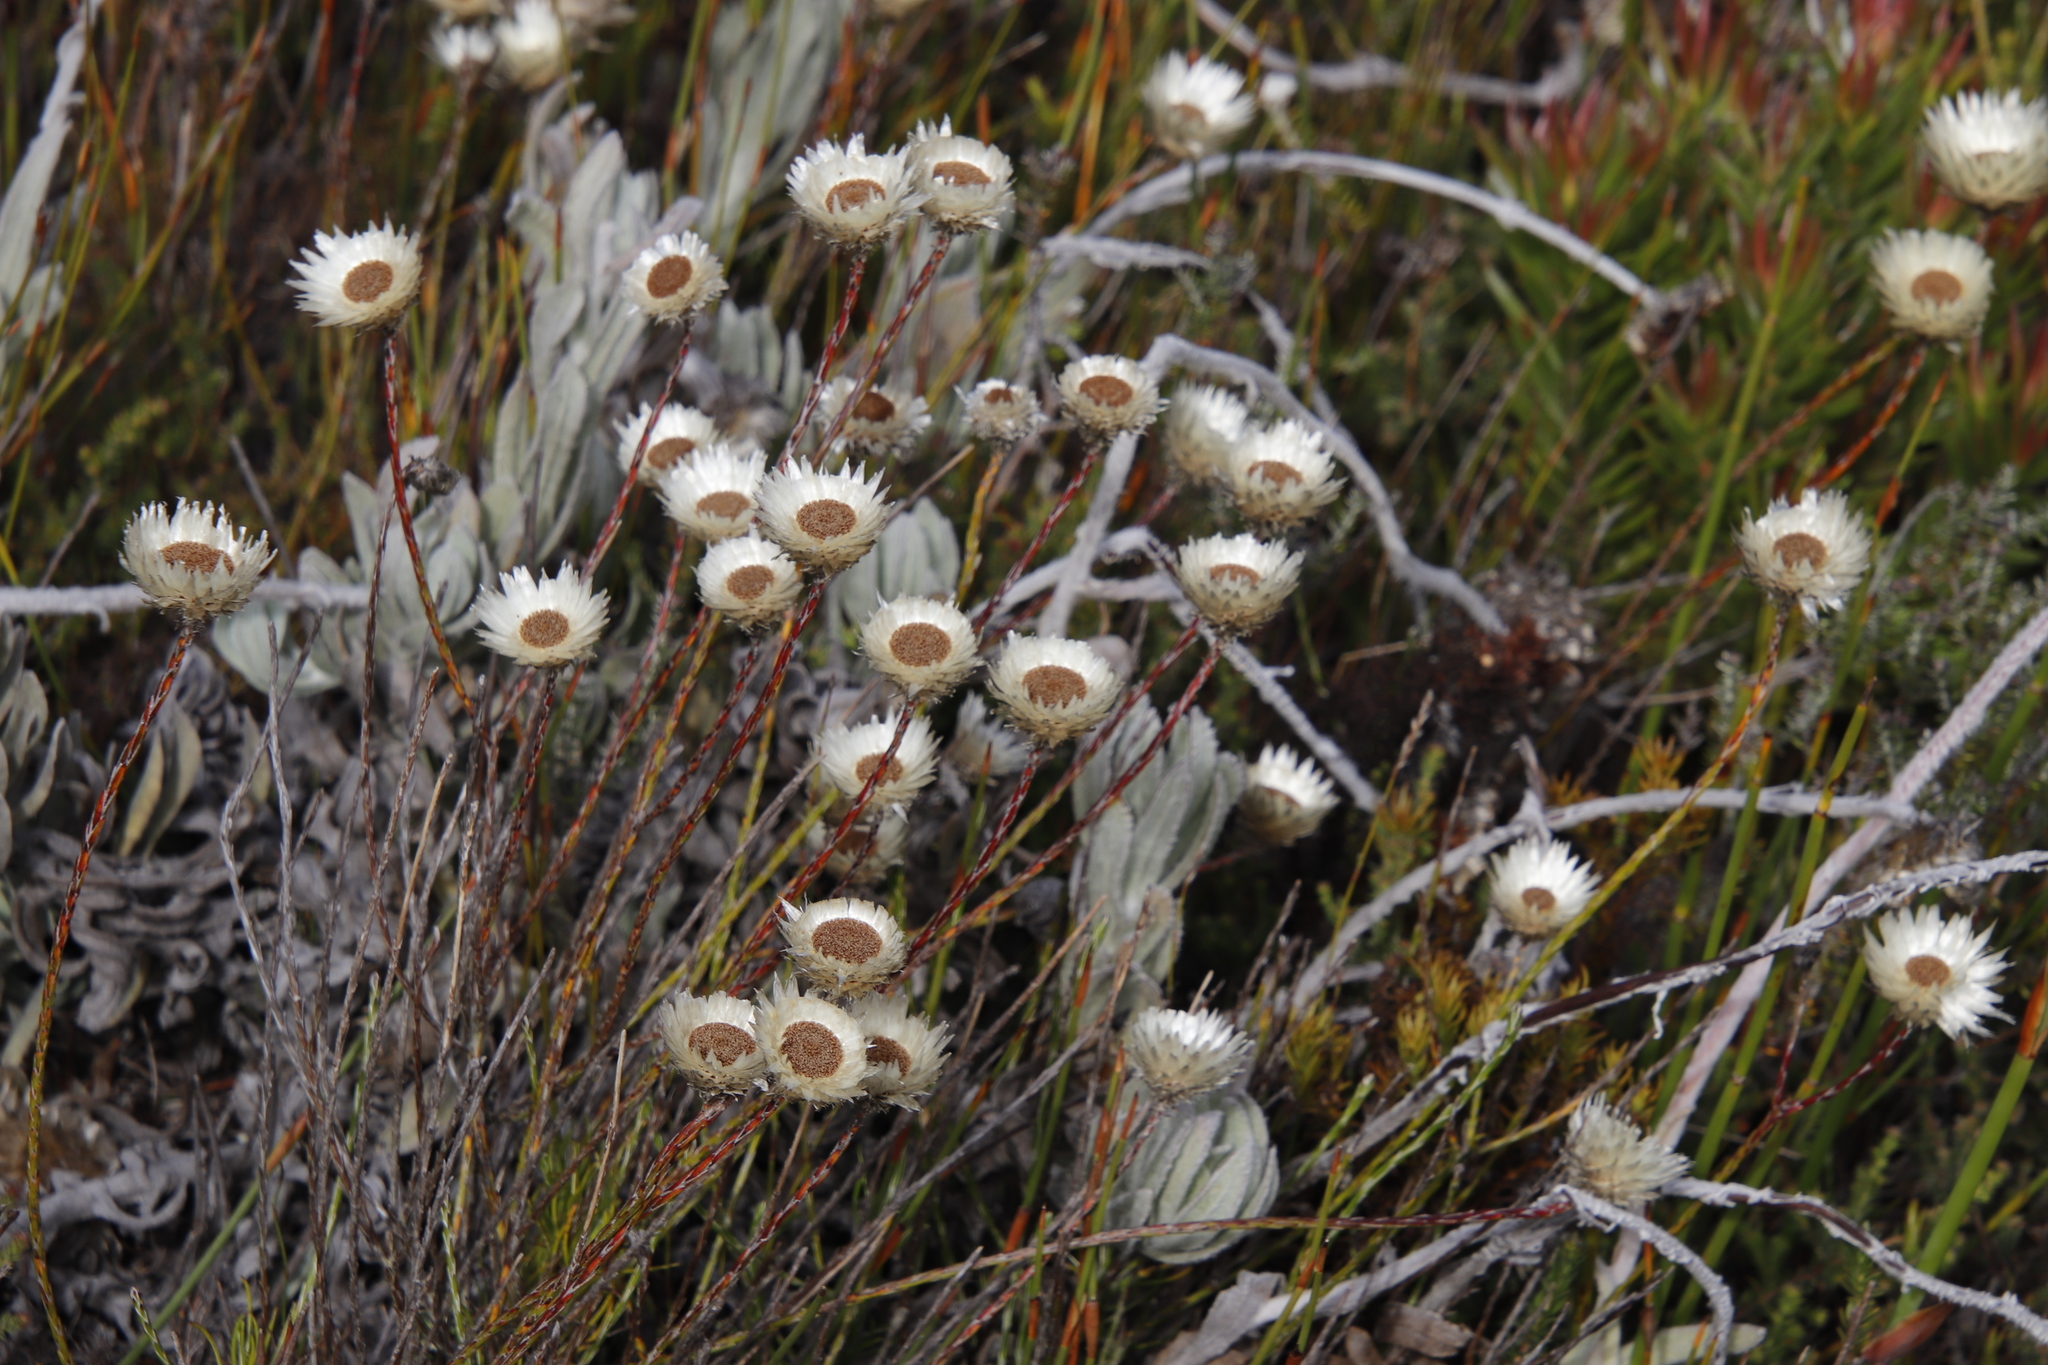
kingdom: Plantae
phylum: Tracheophyta
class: Magnoliopsida
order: Asterales
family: Asteraceae
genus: Edmondia
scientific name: Edmondia sesamoides
